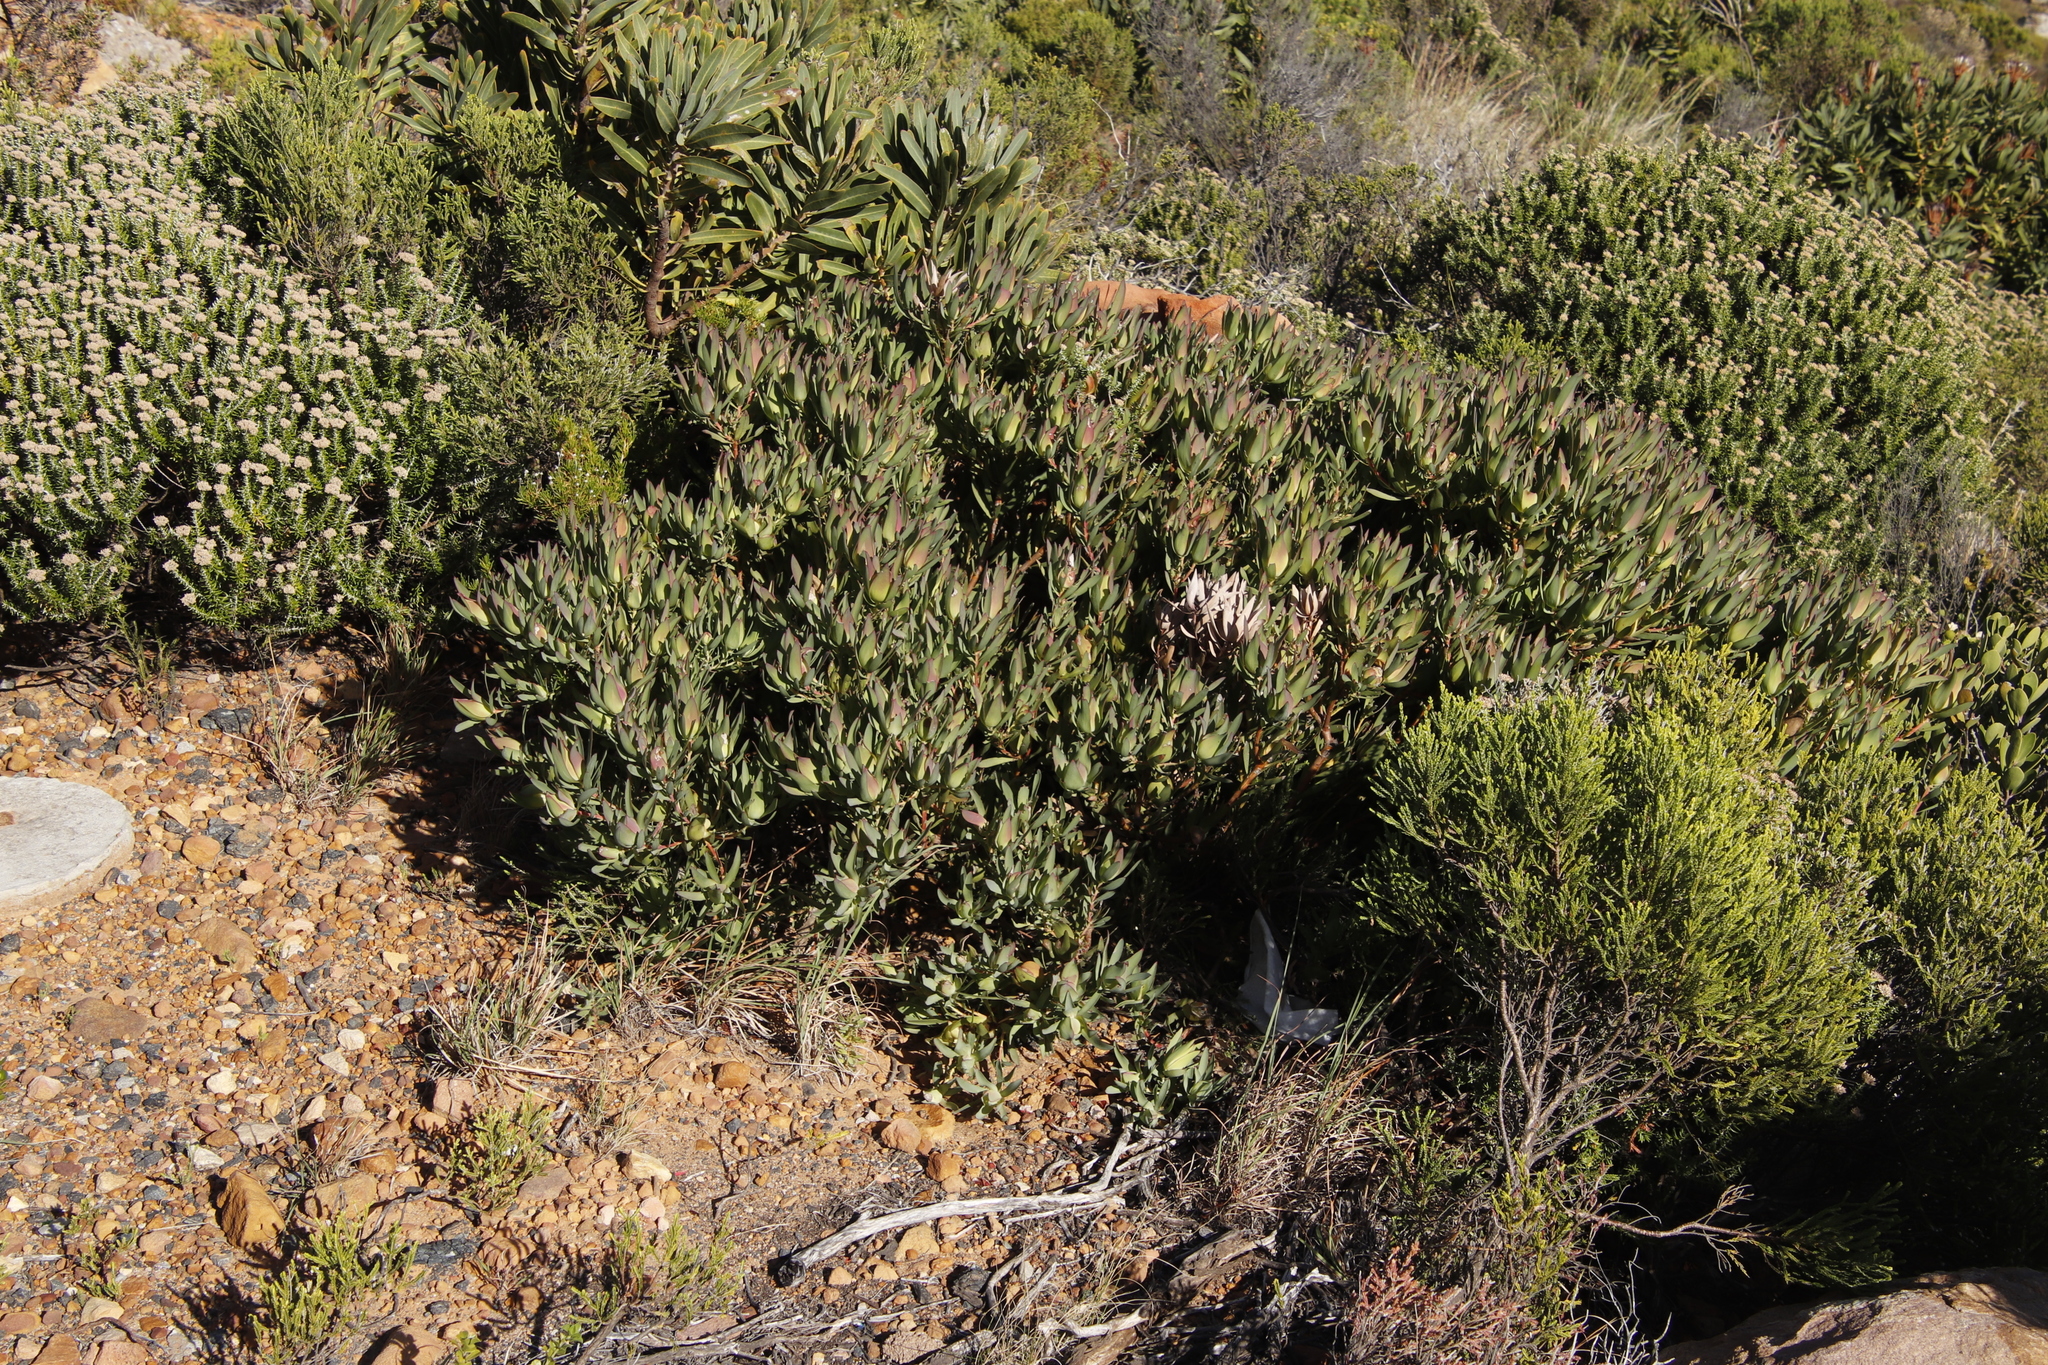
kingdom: Plantae
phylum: Tracheophyta
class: Magnoliopsida
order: Proteales
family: Proteaceae
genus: Leucadendron
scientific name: Leucadendron salignum
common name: Common sunshine conebush
